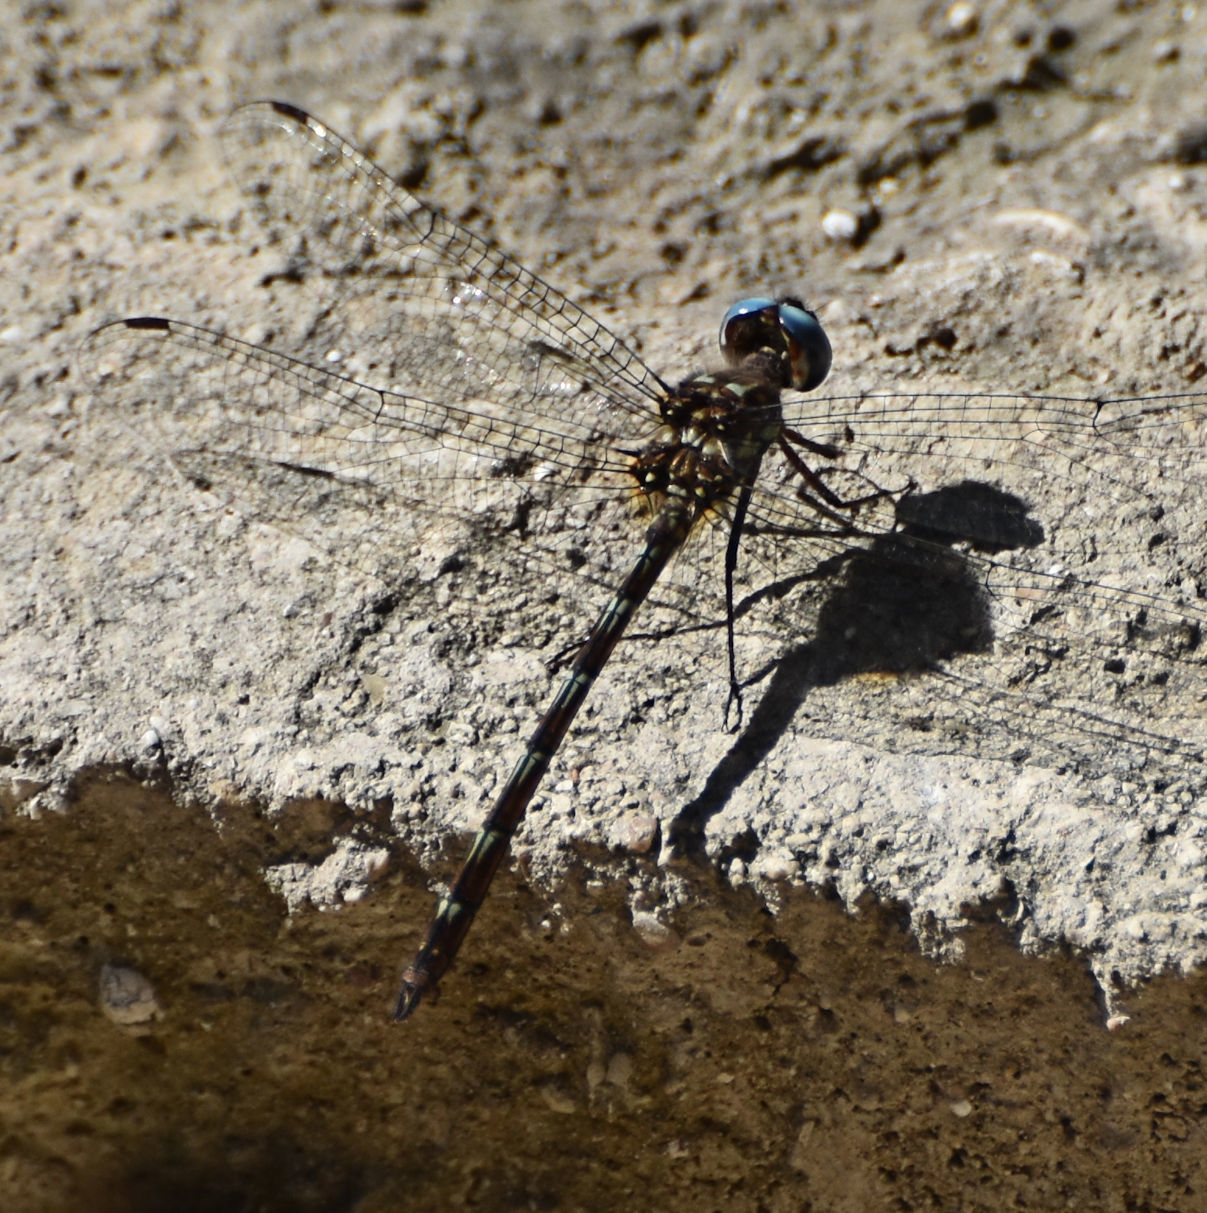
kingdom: Animalia
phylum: Arthropoda
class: Insecta
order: Odonata
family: Libellulidae
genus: Macrothemis
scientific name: Macrothemis celeno
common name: Antillean sylph
